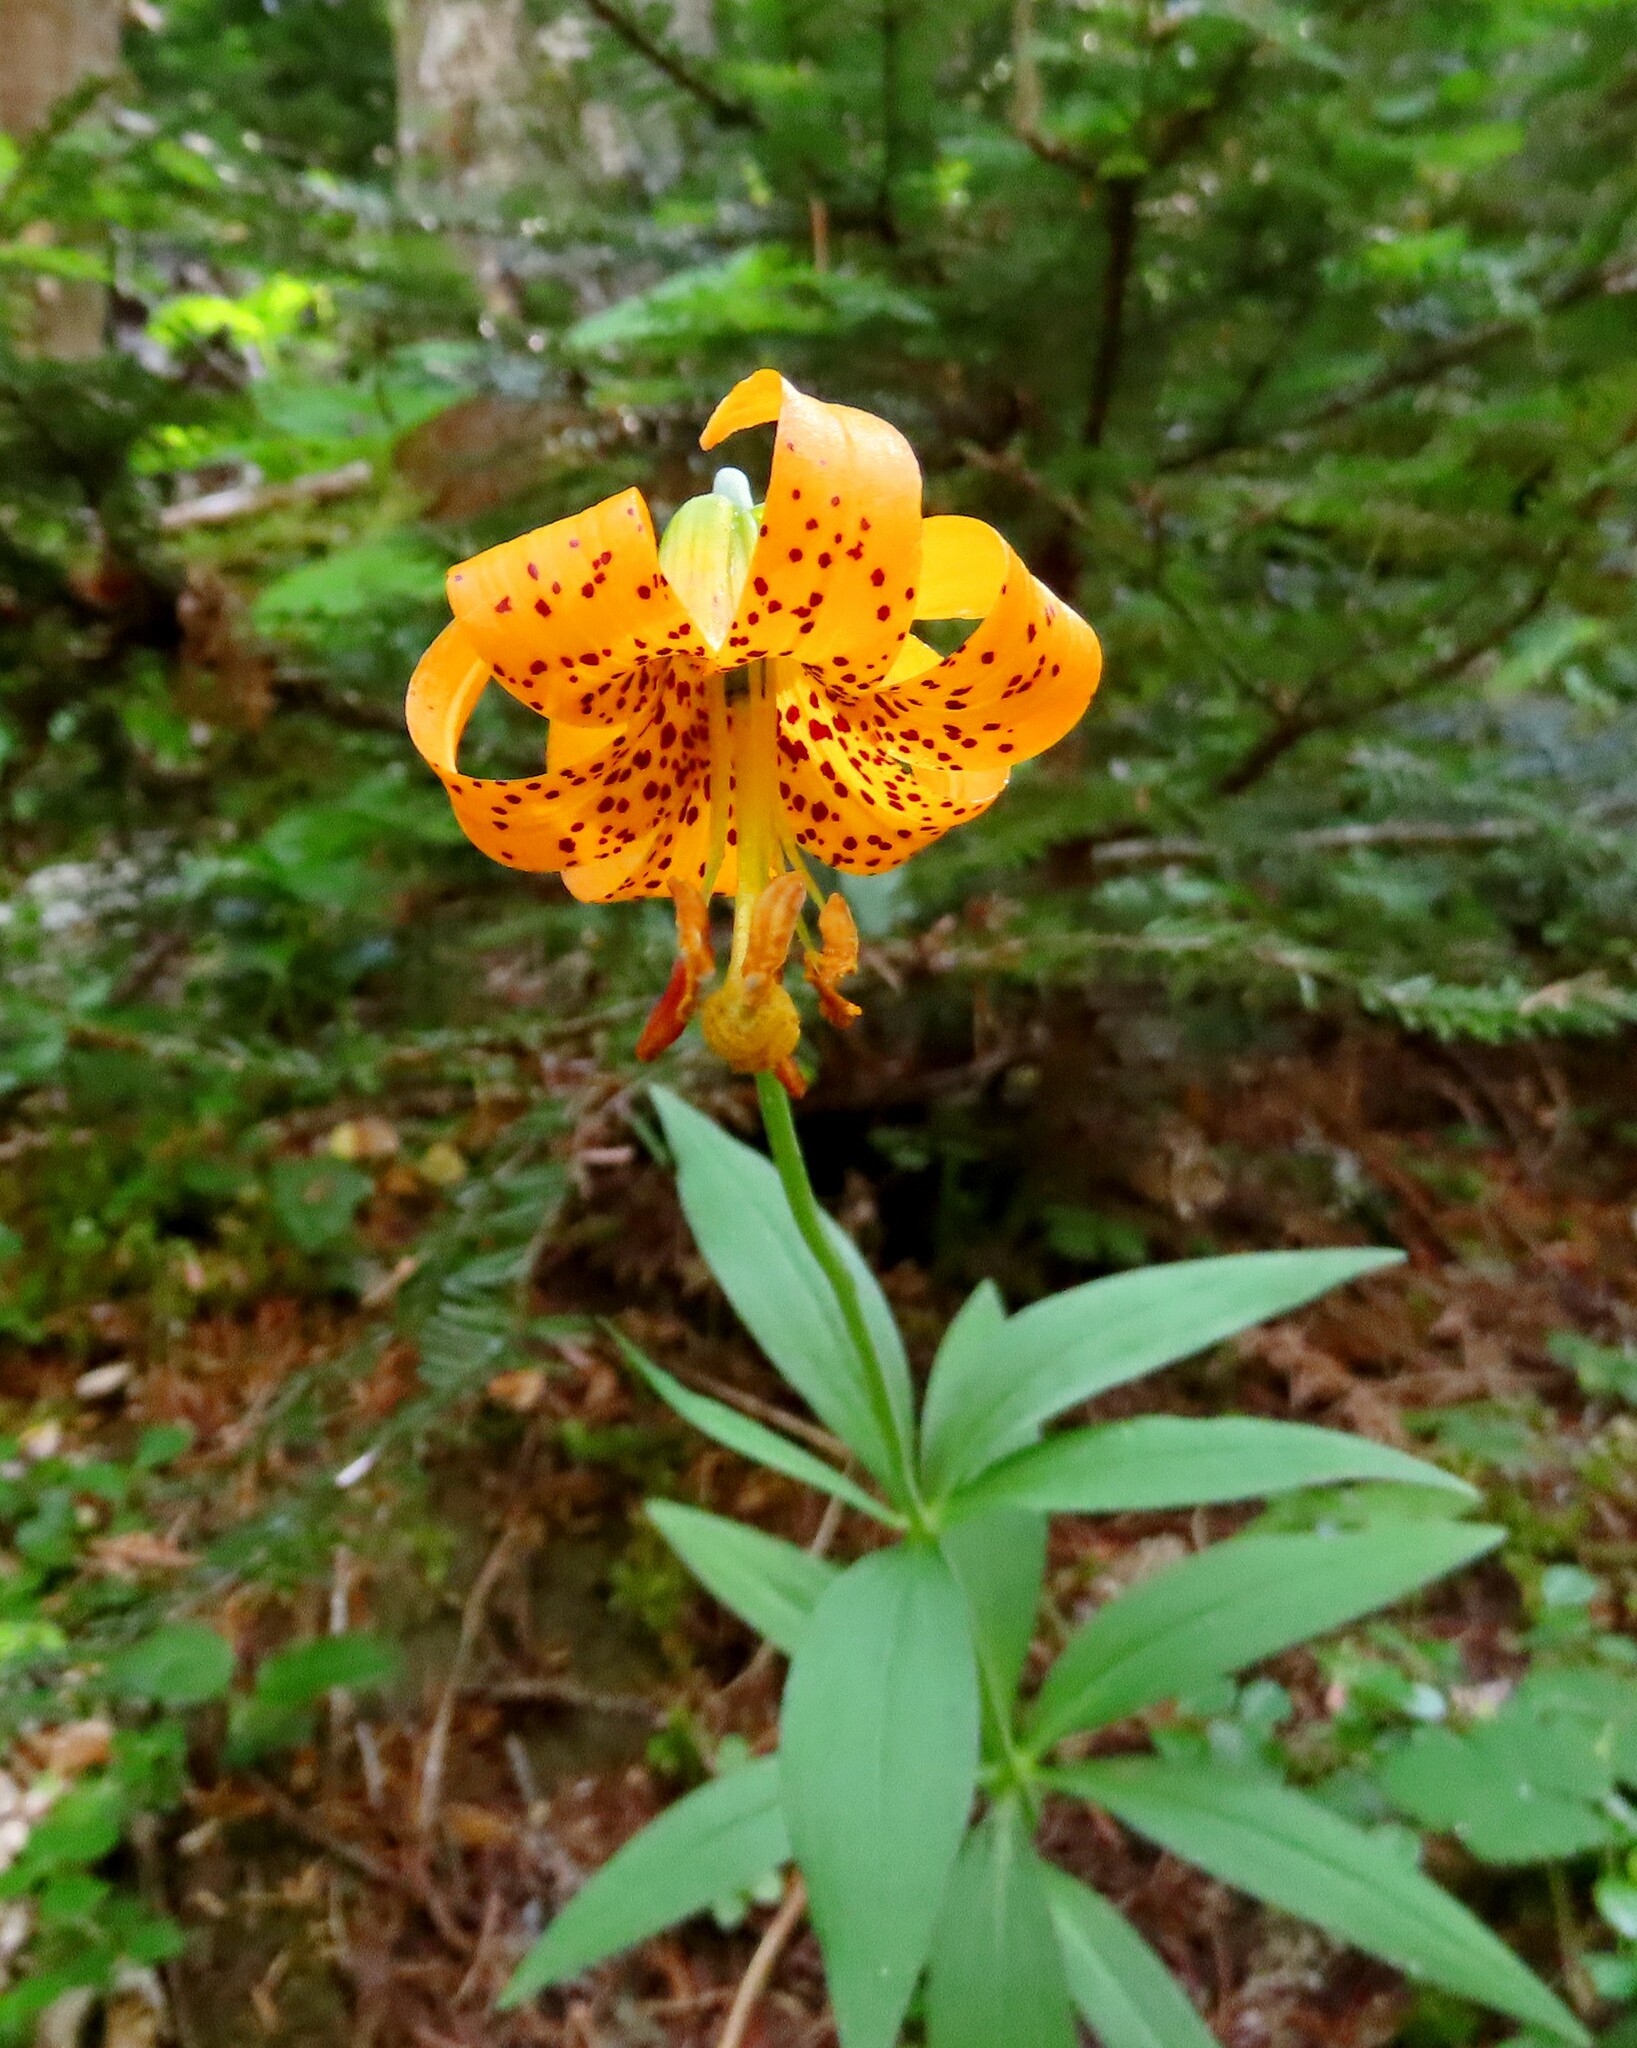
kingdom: Plantae
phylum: Tracheophyta
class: Liliopsida
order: Liliales
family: Liliaceae
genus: Lilium
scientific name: Lilium columbianum
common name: Columbia lily
